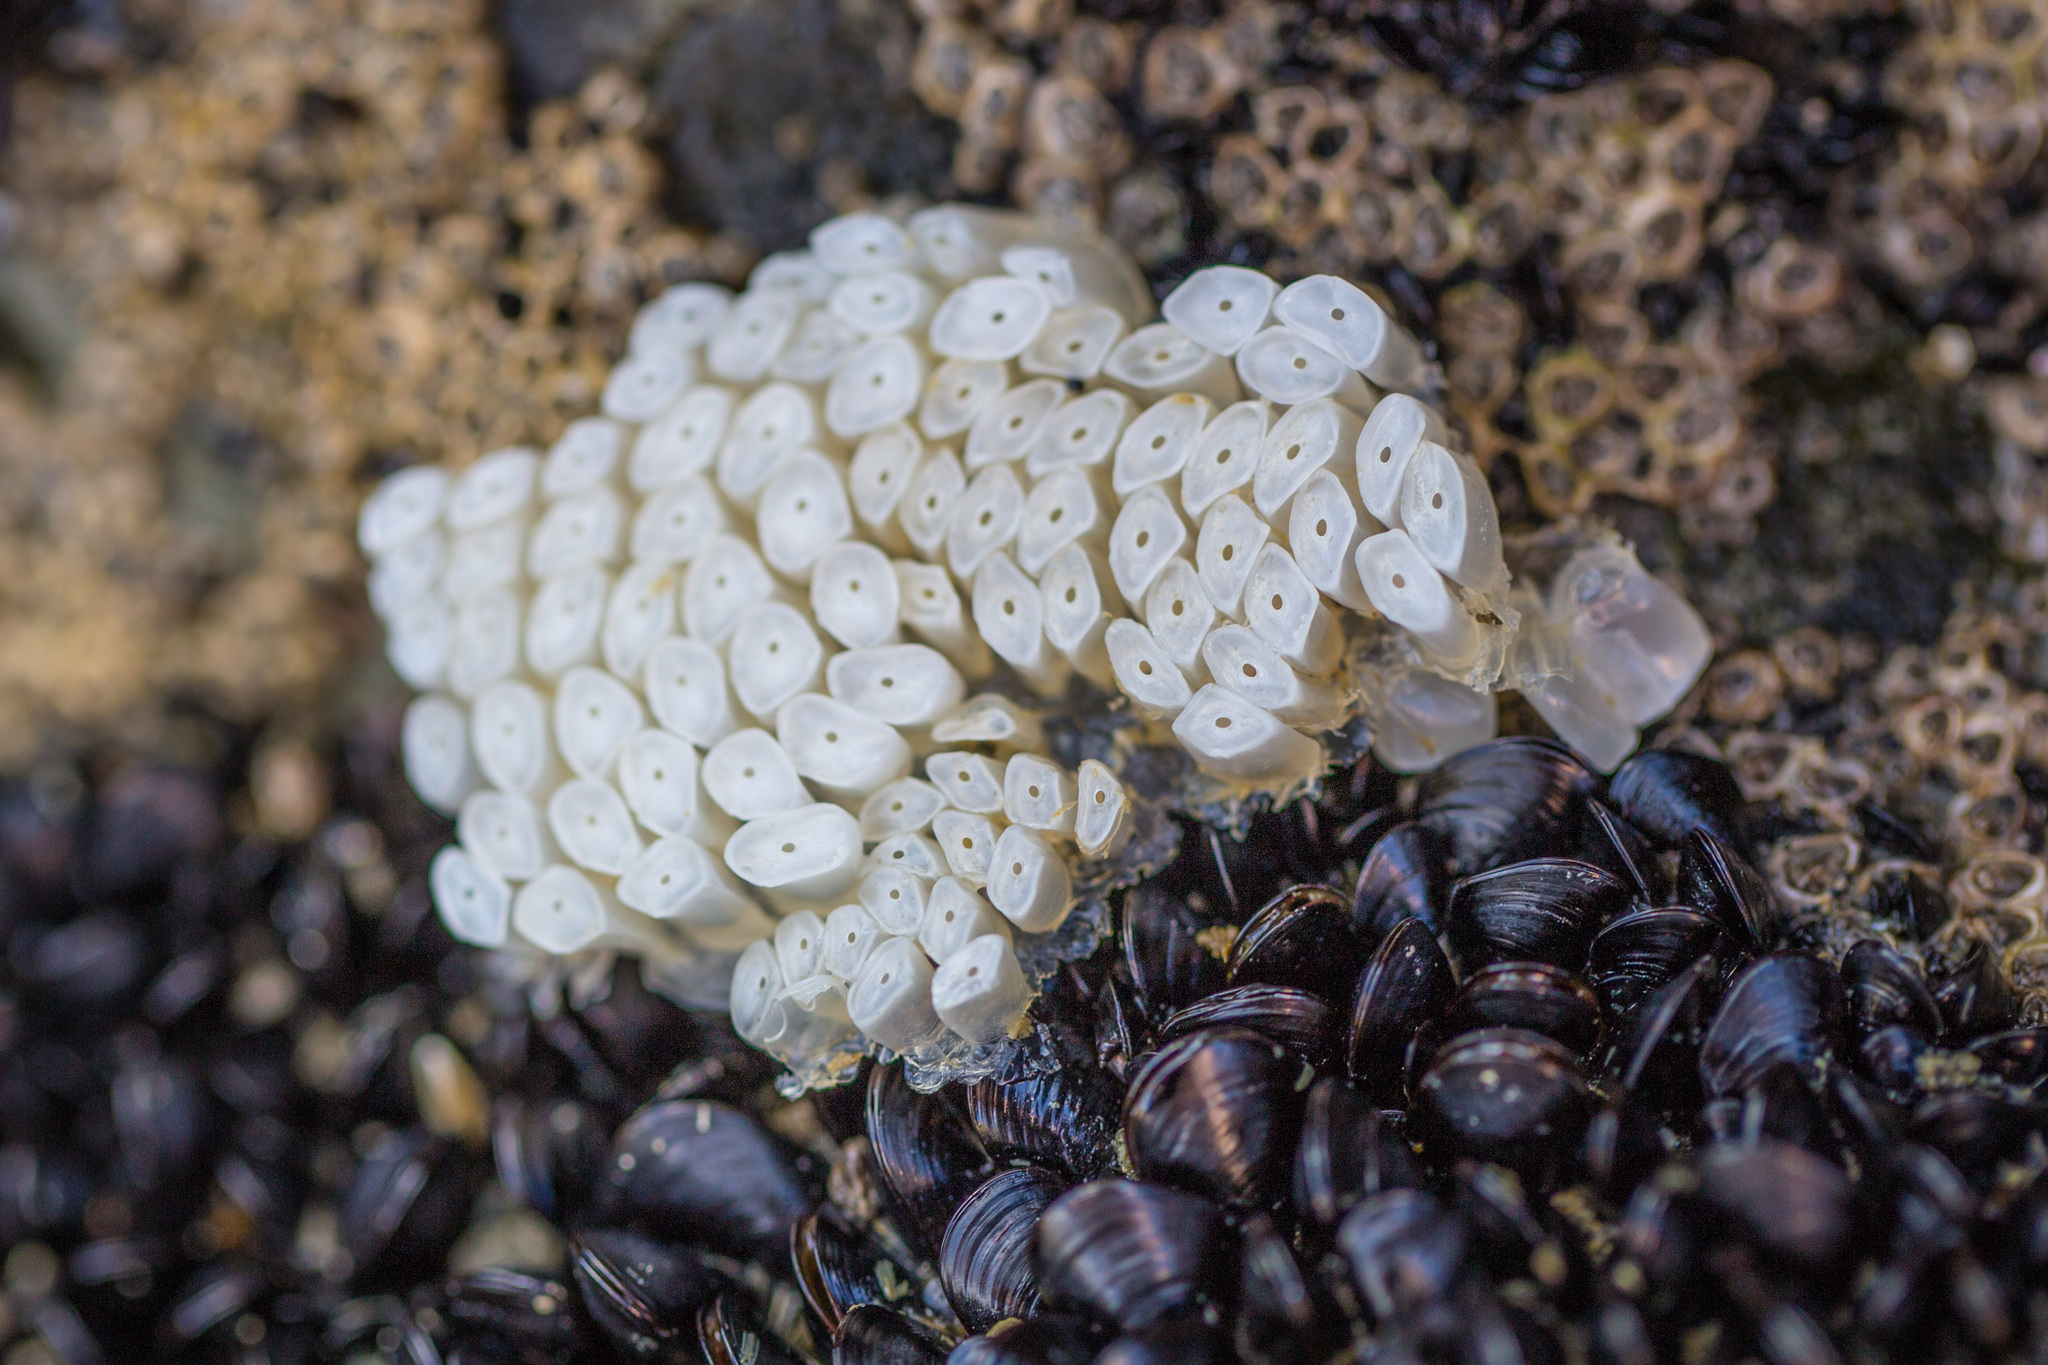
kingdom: Animalia
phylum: Mollusca
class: Gastropoda
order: Neogastropoda
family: Muricidae
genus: Dicathais
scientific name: Dicathais orbita
